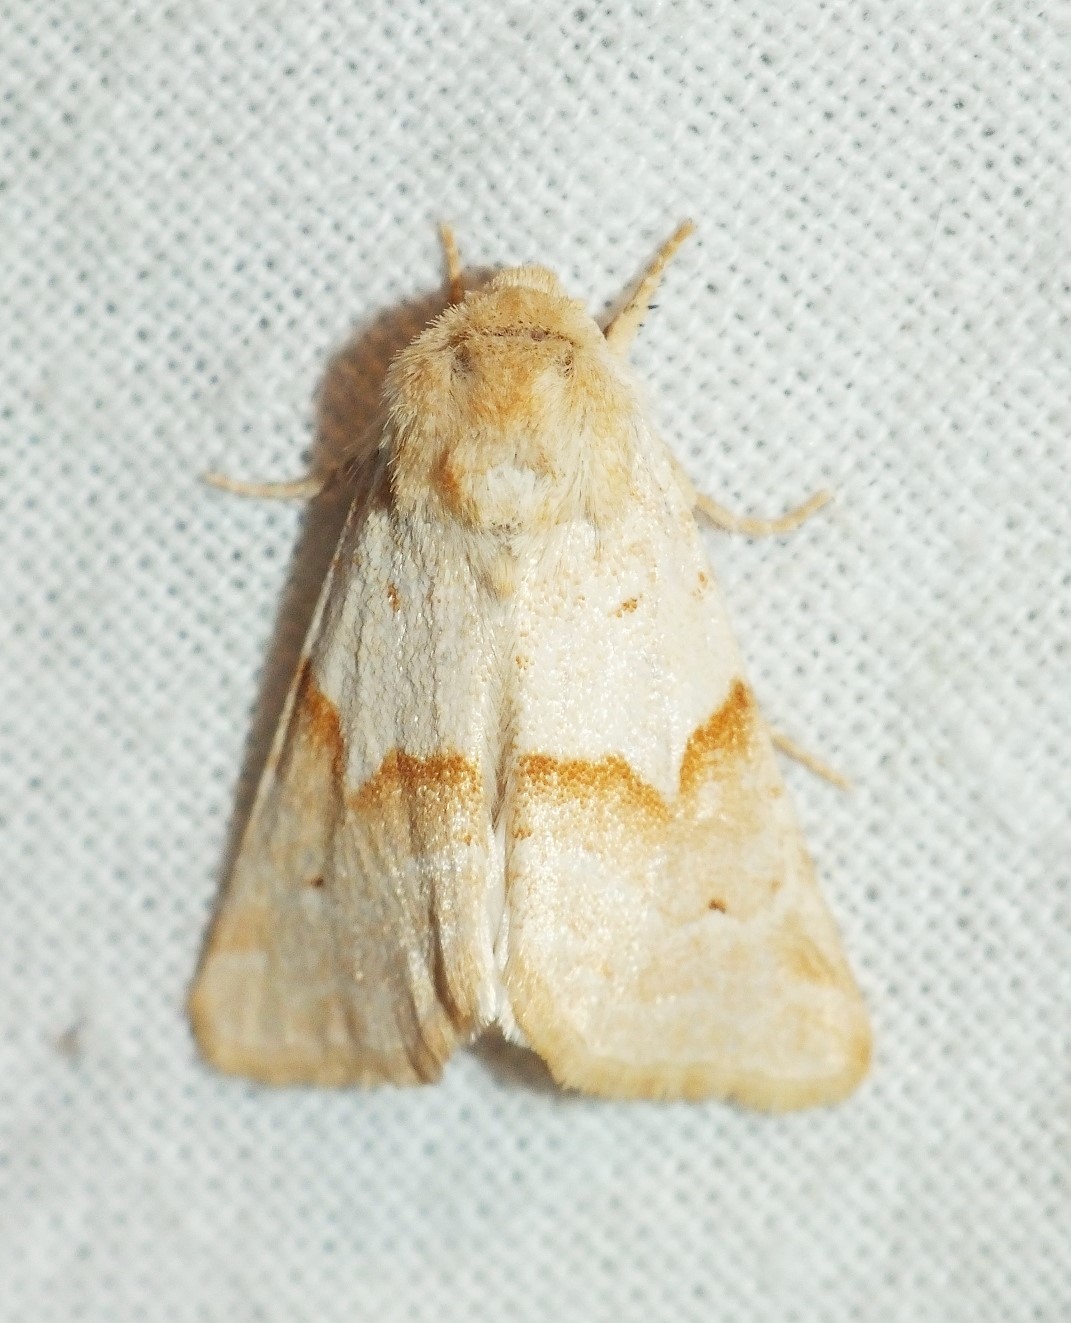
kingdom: Animalia
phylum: Arthropoda
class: Insecta
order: Lepidoptera
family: Noctuidae
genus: Mycteroplus
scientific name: Mycteroplus puniceago
